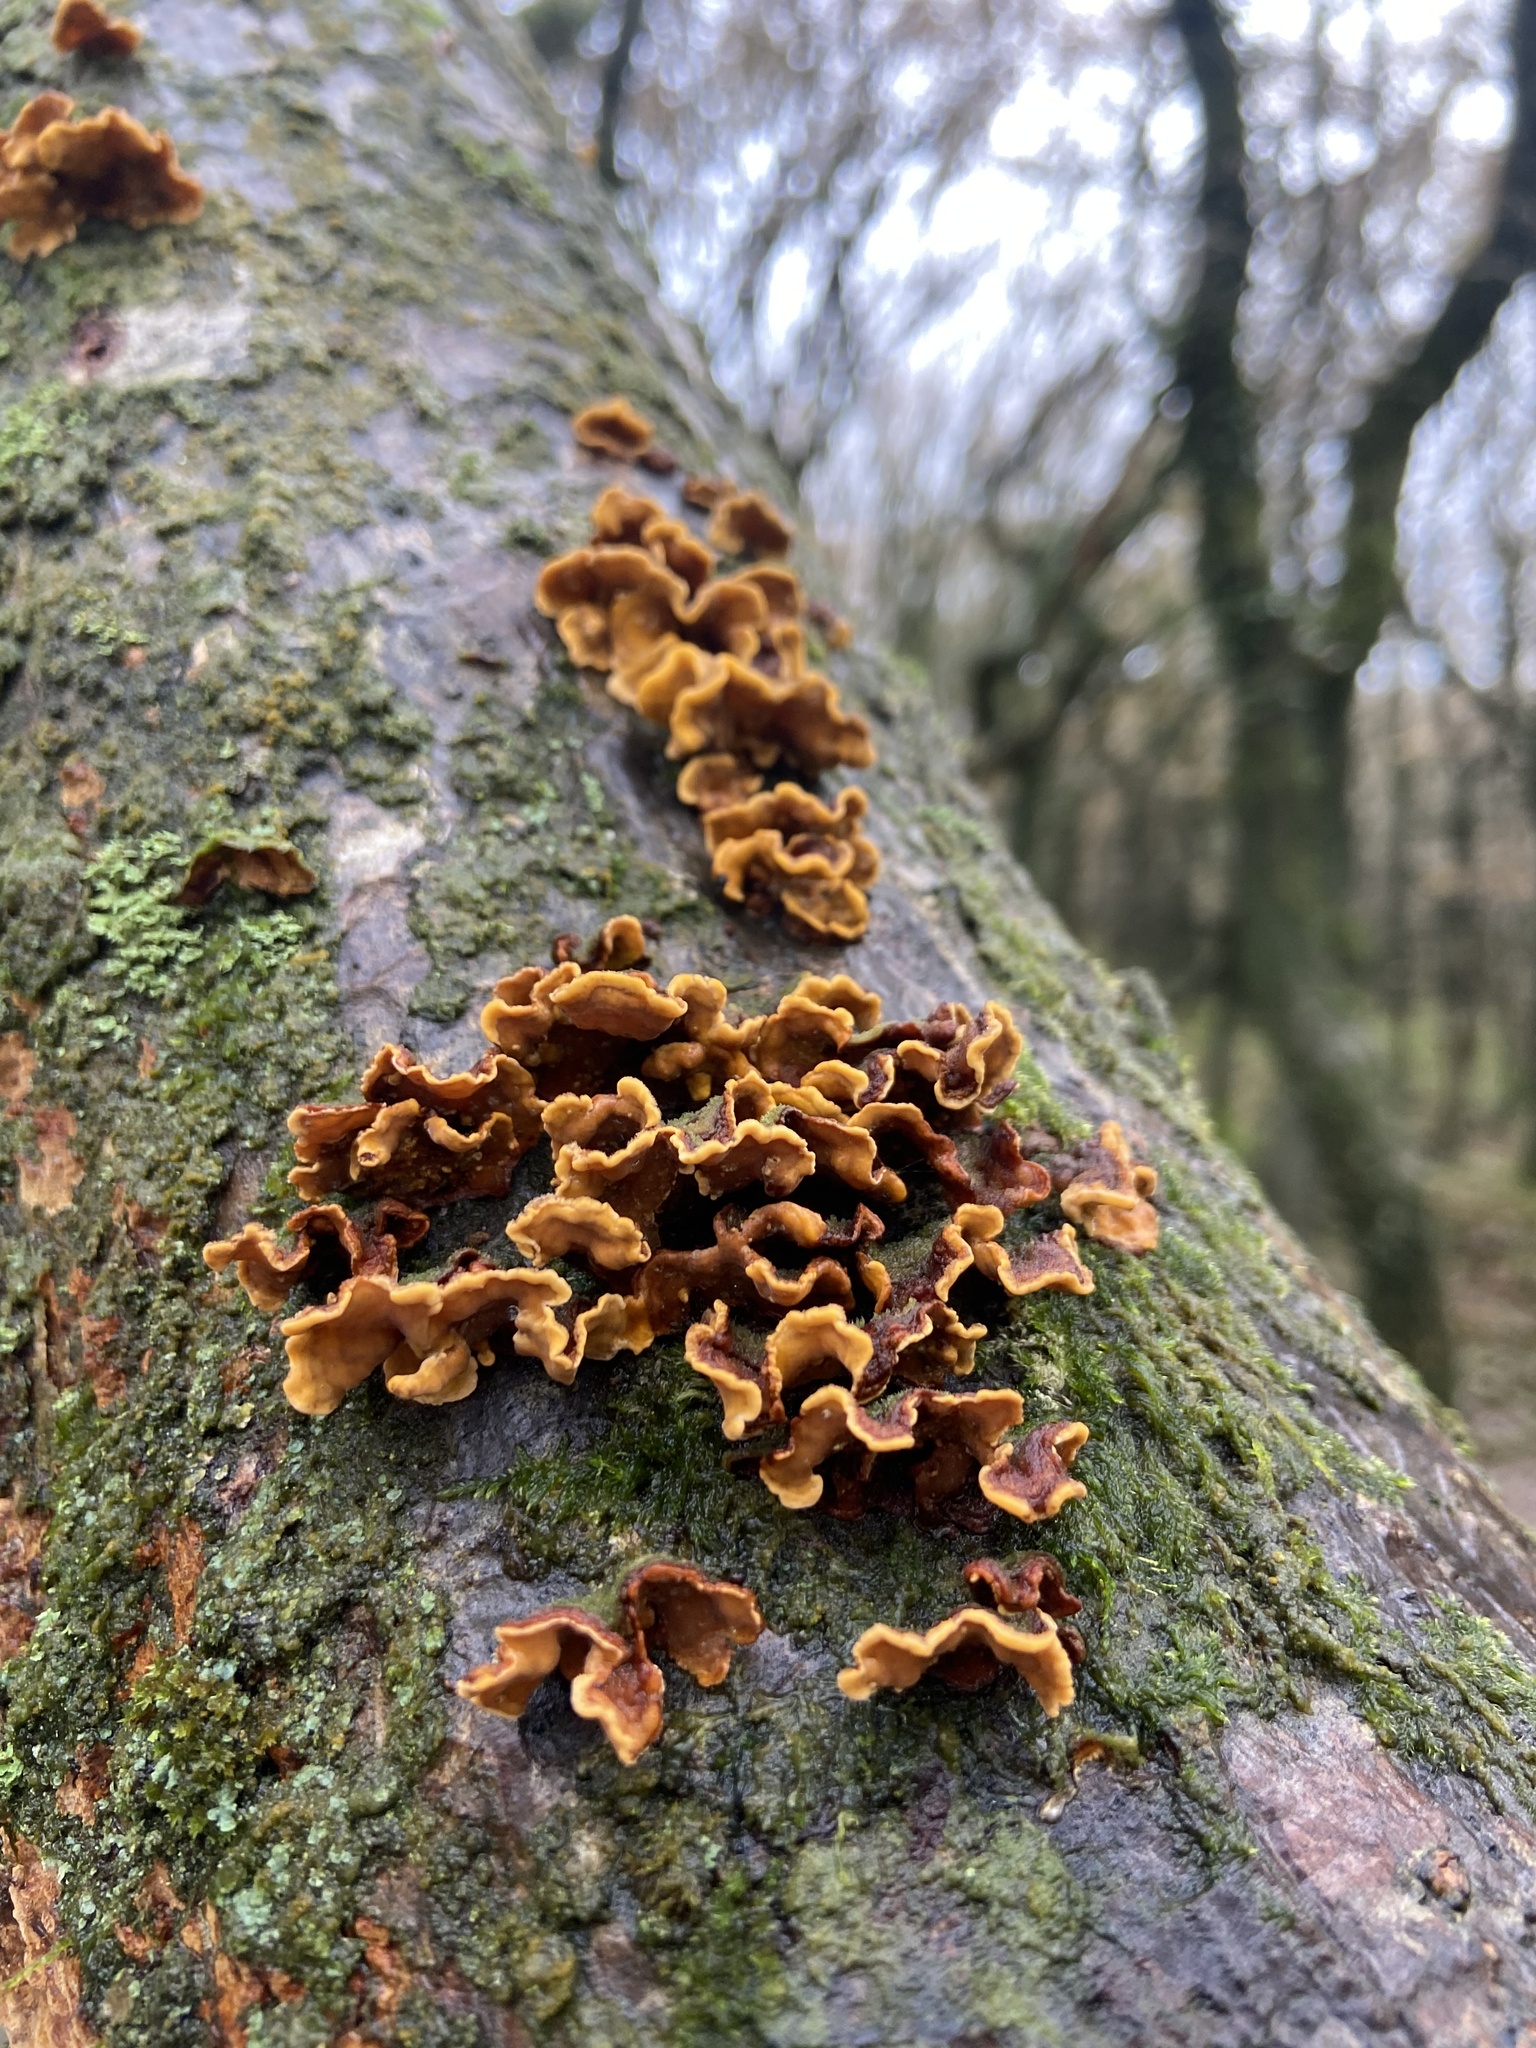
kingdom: Fungi
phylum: Basidiomycota
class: Agaricomycetes
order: Russulales
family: Stereaceae
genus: Stereum
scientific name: Stereum hirsutum
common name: Hairy curtain crust
